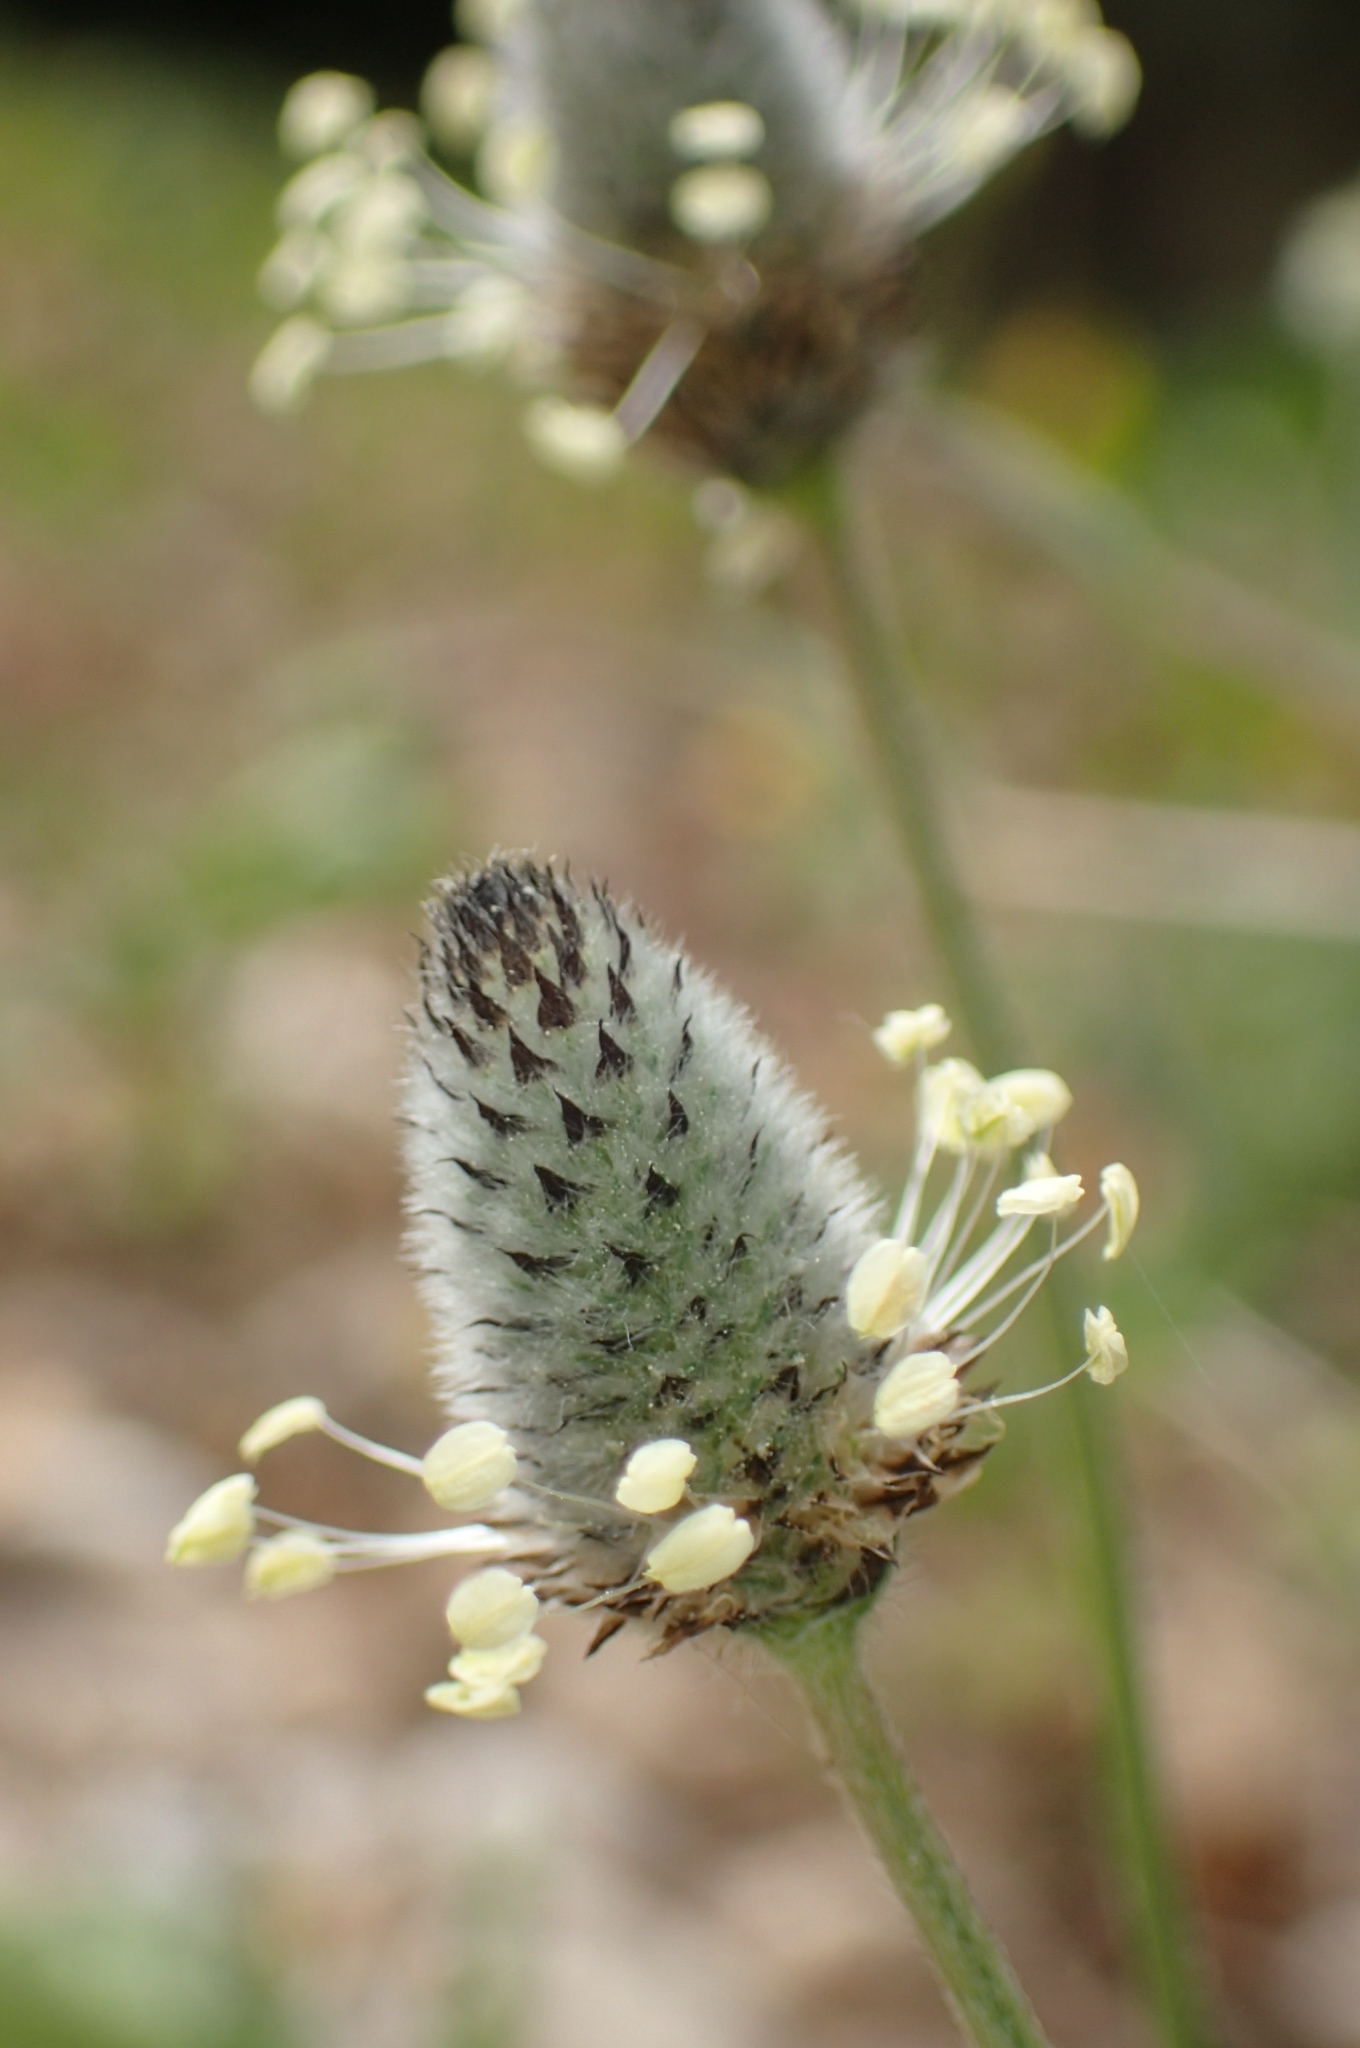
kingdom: Plantae
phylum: Tracheophyta
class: Magnoliopsida
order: Lamiales
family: Plantaginaceae
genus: Plantago
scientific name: Plantago lagopus
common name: Hare-foot plantain
